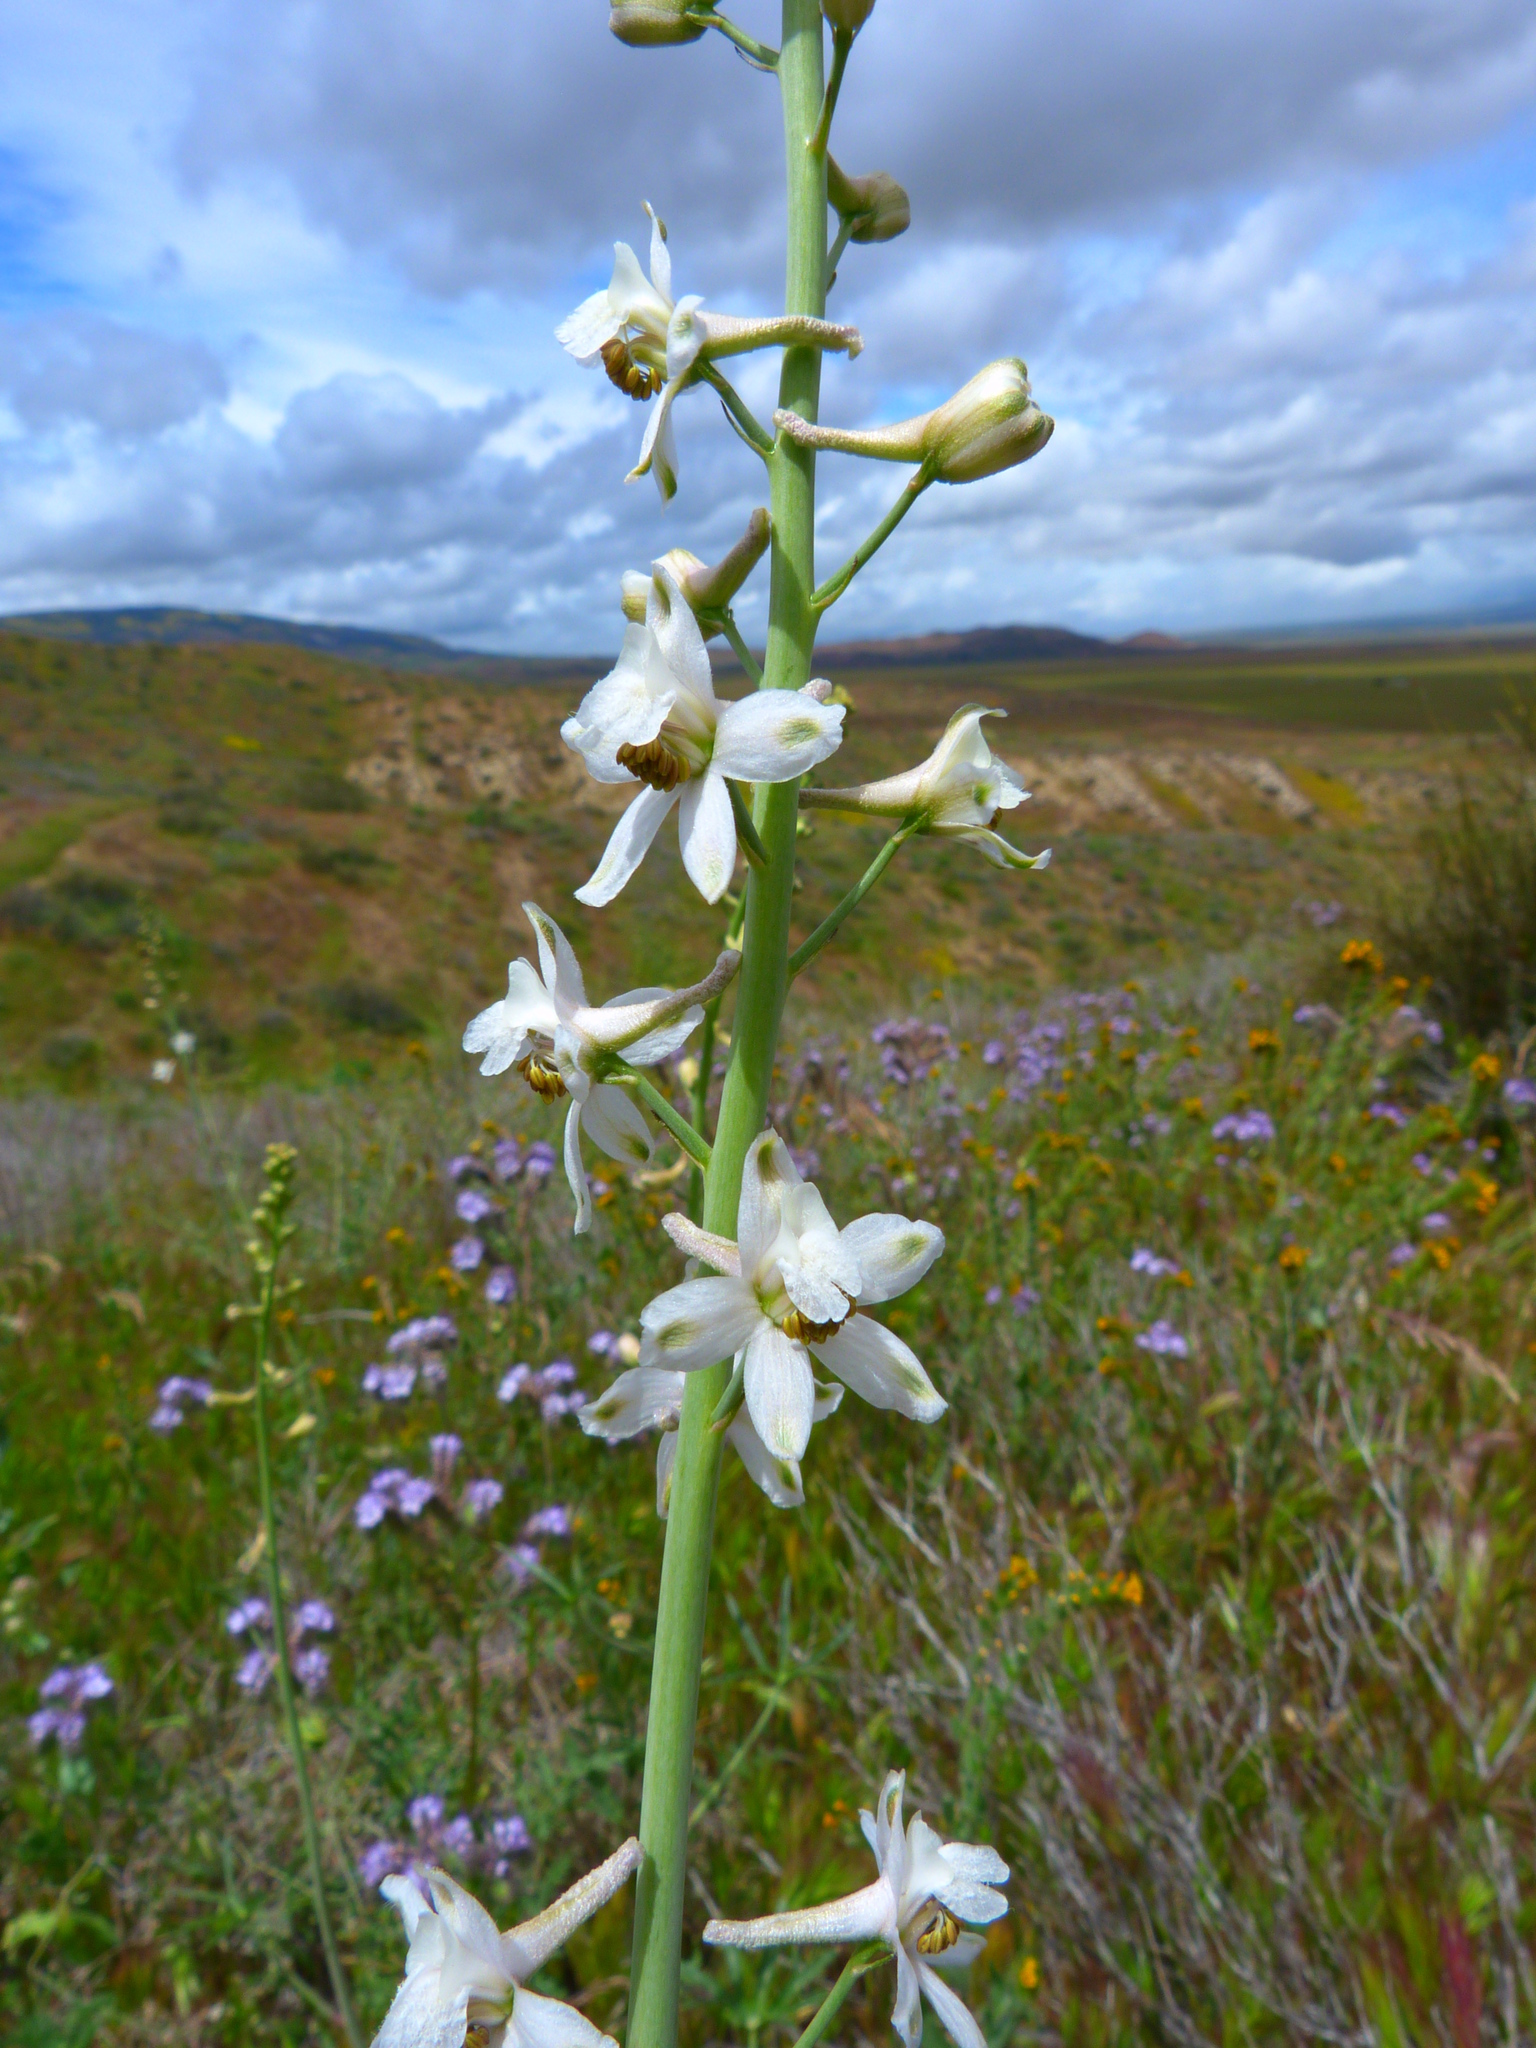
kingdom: Plantae
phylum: Tracheophyta
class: Magnoliopsida
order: Ranunculales
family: Ranunculaceae
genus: Delphinium
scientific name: Delphinium gypsophilum
